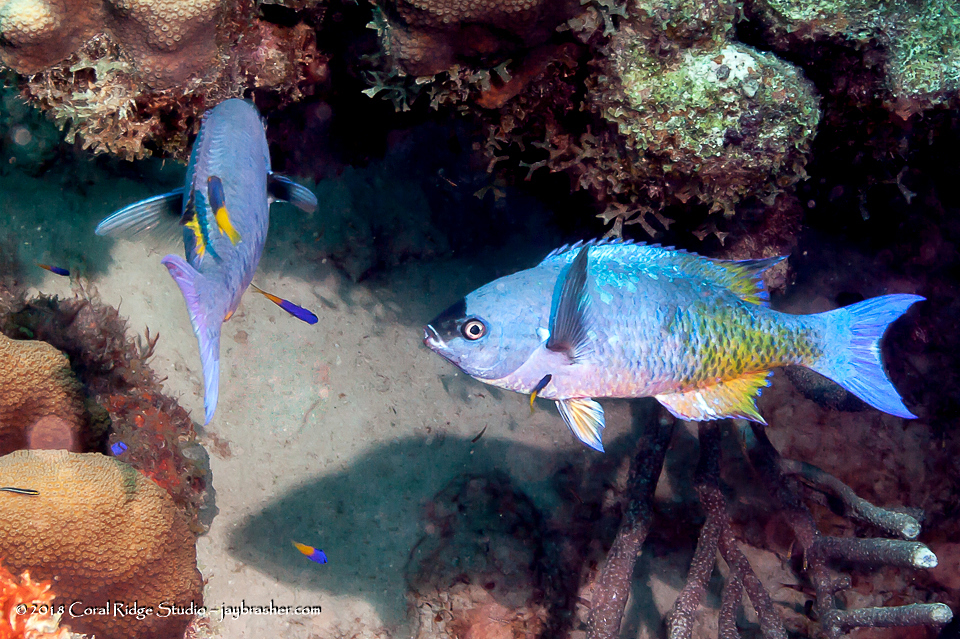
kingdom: Animalia
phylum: Chordata
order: Perciformes
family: Labridae
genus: Bodianus
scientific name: Bodianus
